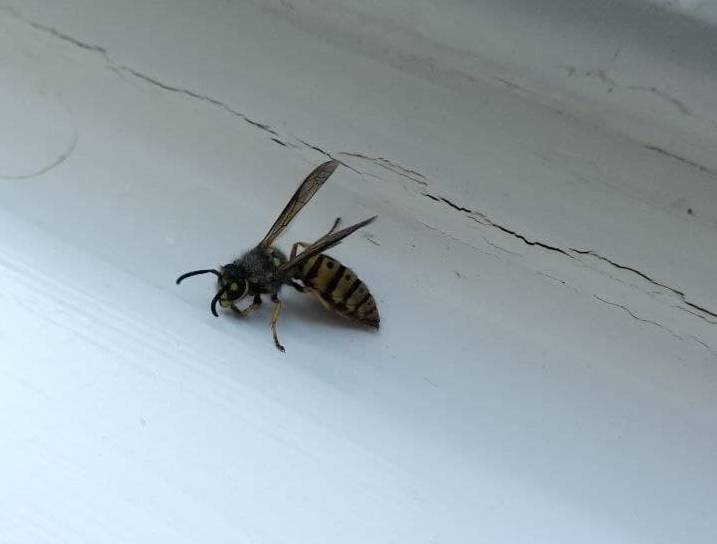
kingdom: Animalia
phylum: Arthropoda
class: Insecta
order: Hymenoptera
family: Vespidae
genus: Vespula
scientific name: Vespula germanica
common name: German wasp
